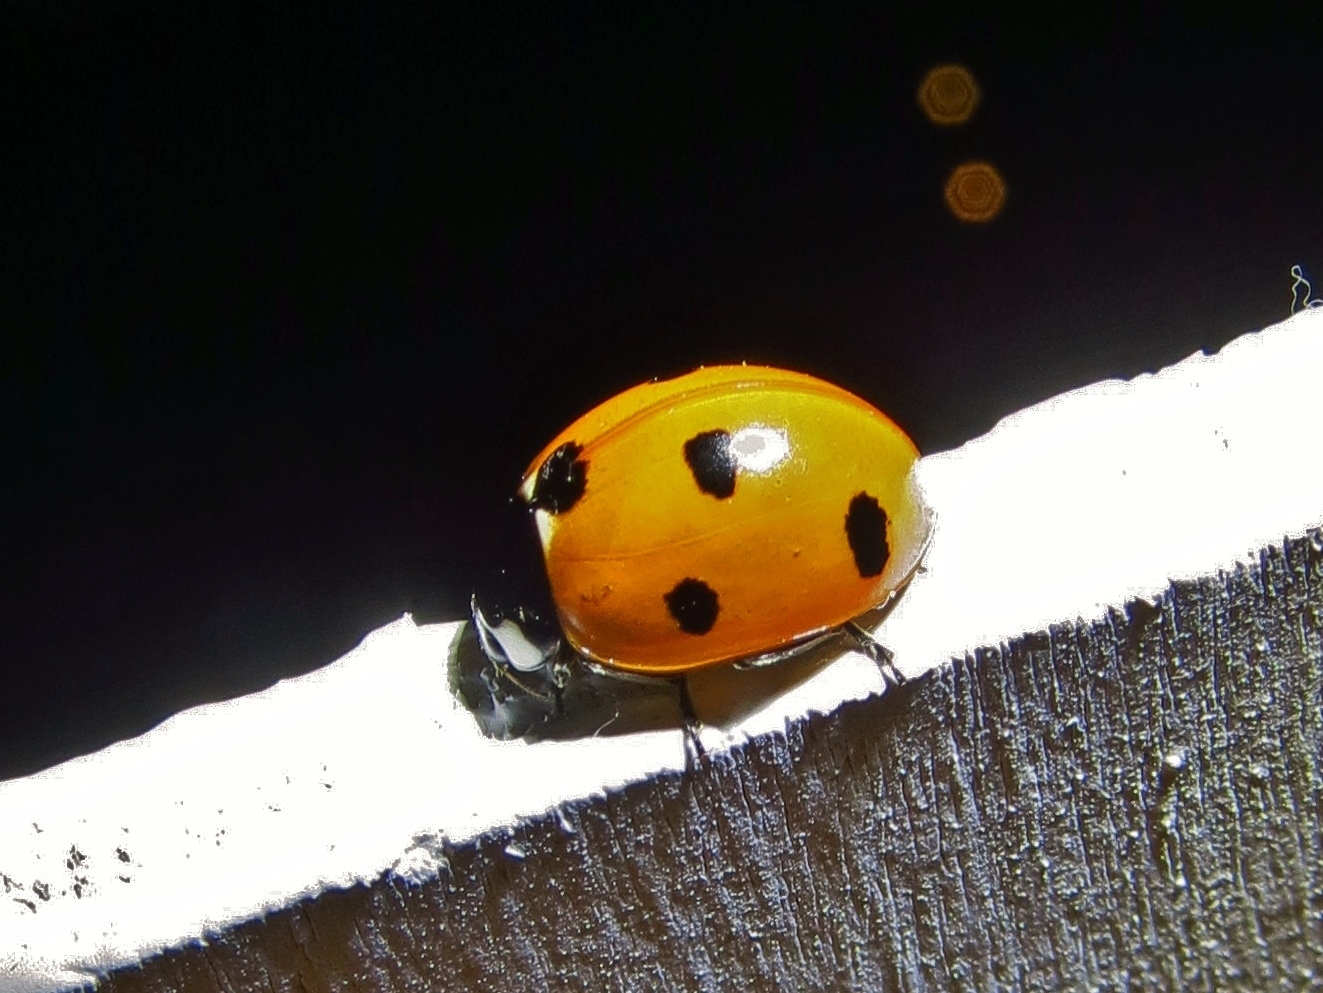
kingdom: Animalia
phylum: Arthropoda
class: Insecta
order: Coleoptera
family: Coccinellidae
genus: Coccinella
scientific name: Coccinella septempunctata
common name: Sevenspotted lady beetle
